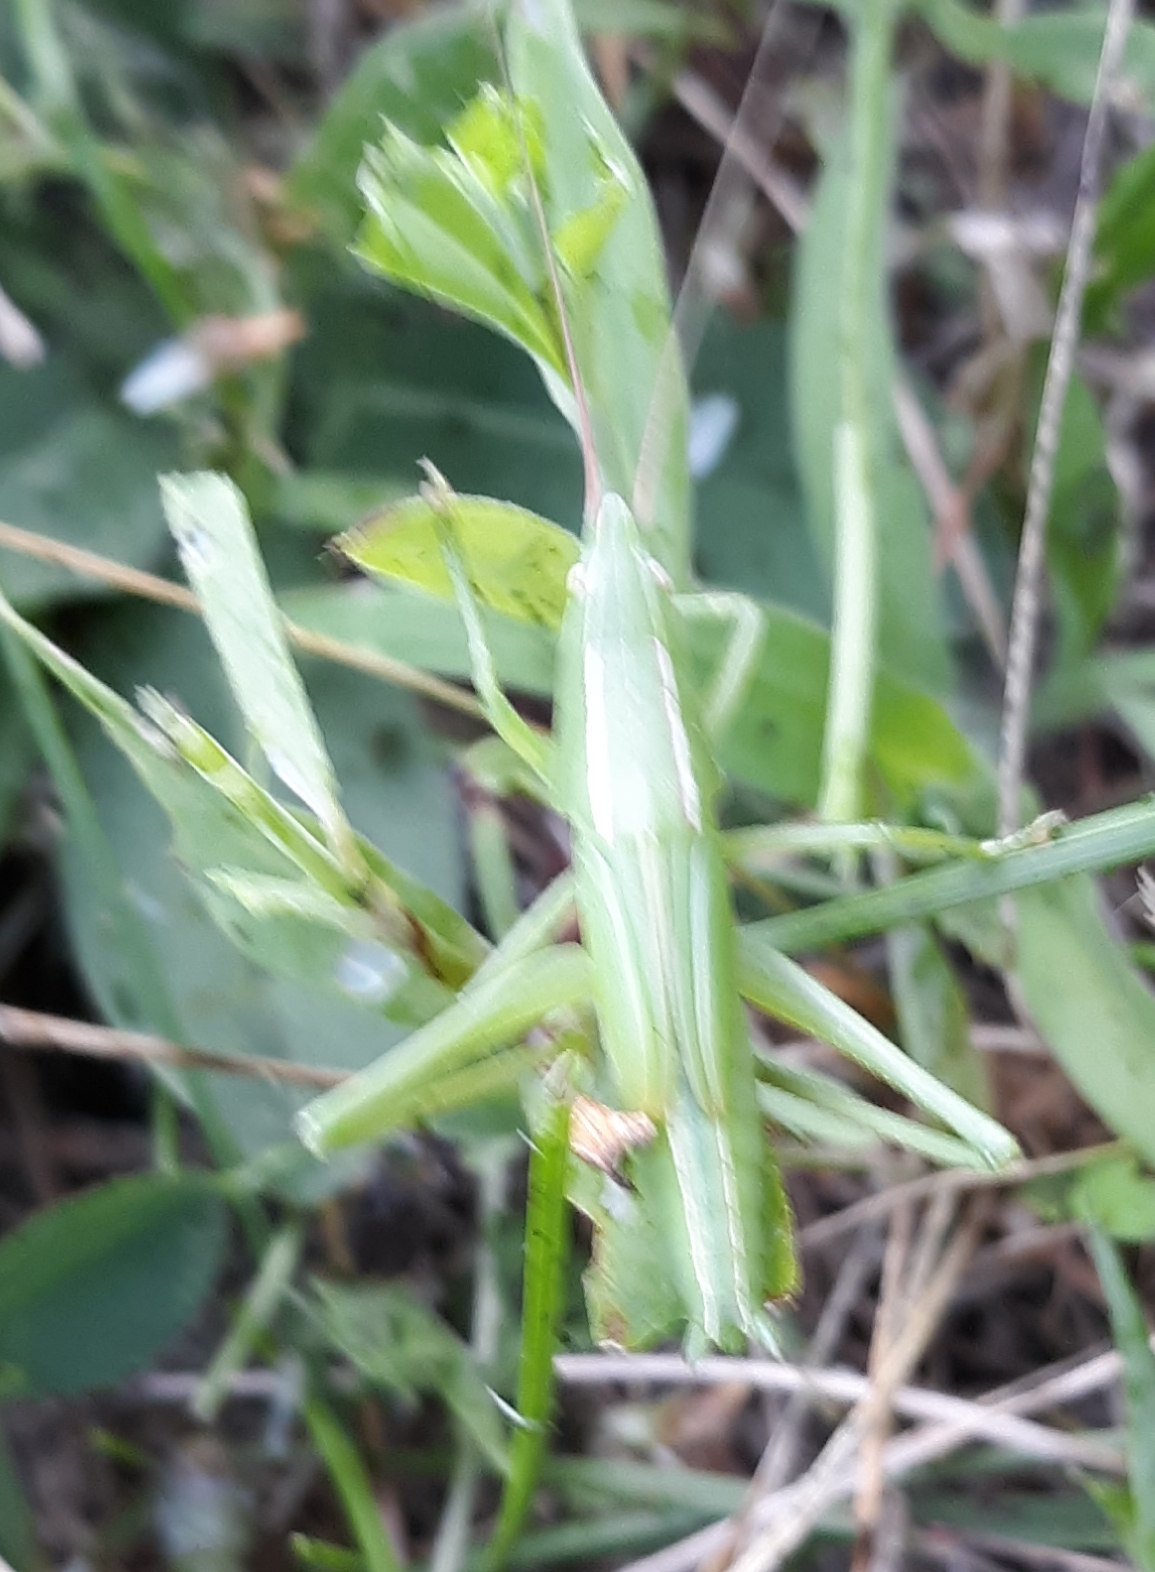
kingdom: Animalia
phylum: Arthropoda
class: Insecta
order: Orthoptera
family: Tettigoniidae
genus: Neoconocephalus
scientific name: Neoconocephalus ensiger
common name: Swordbearer
